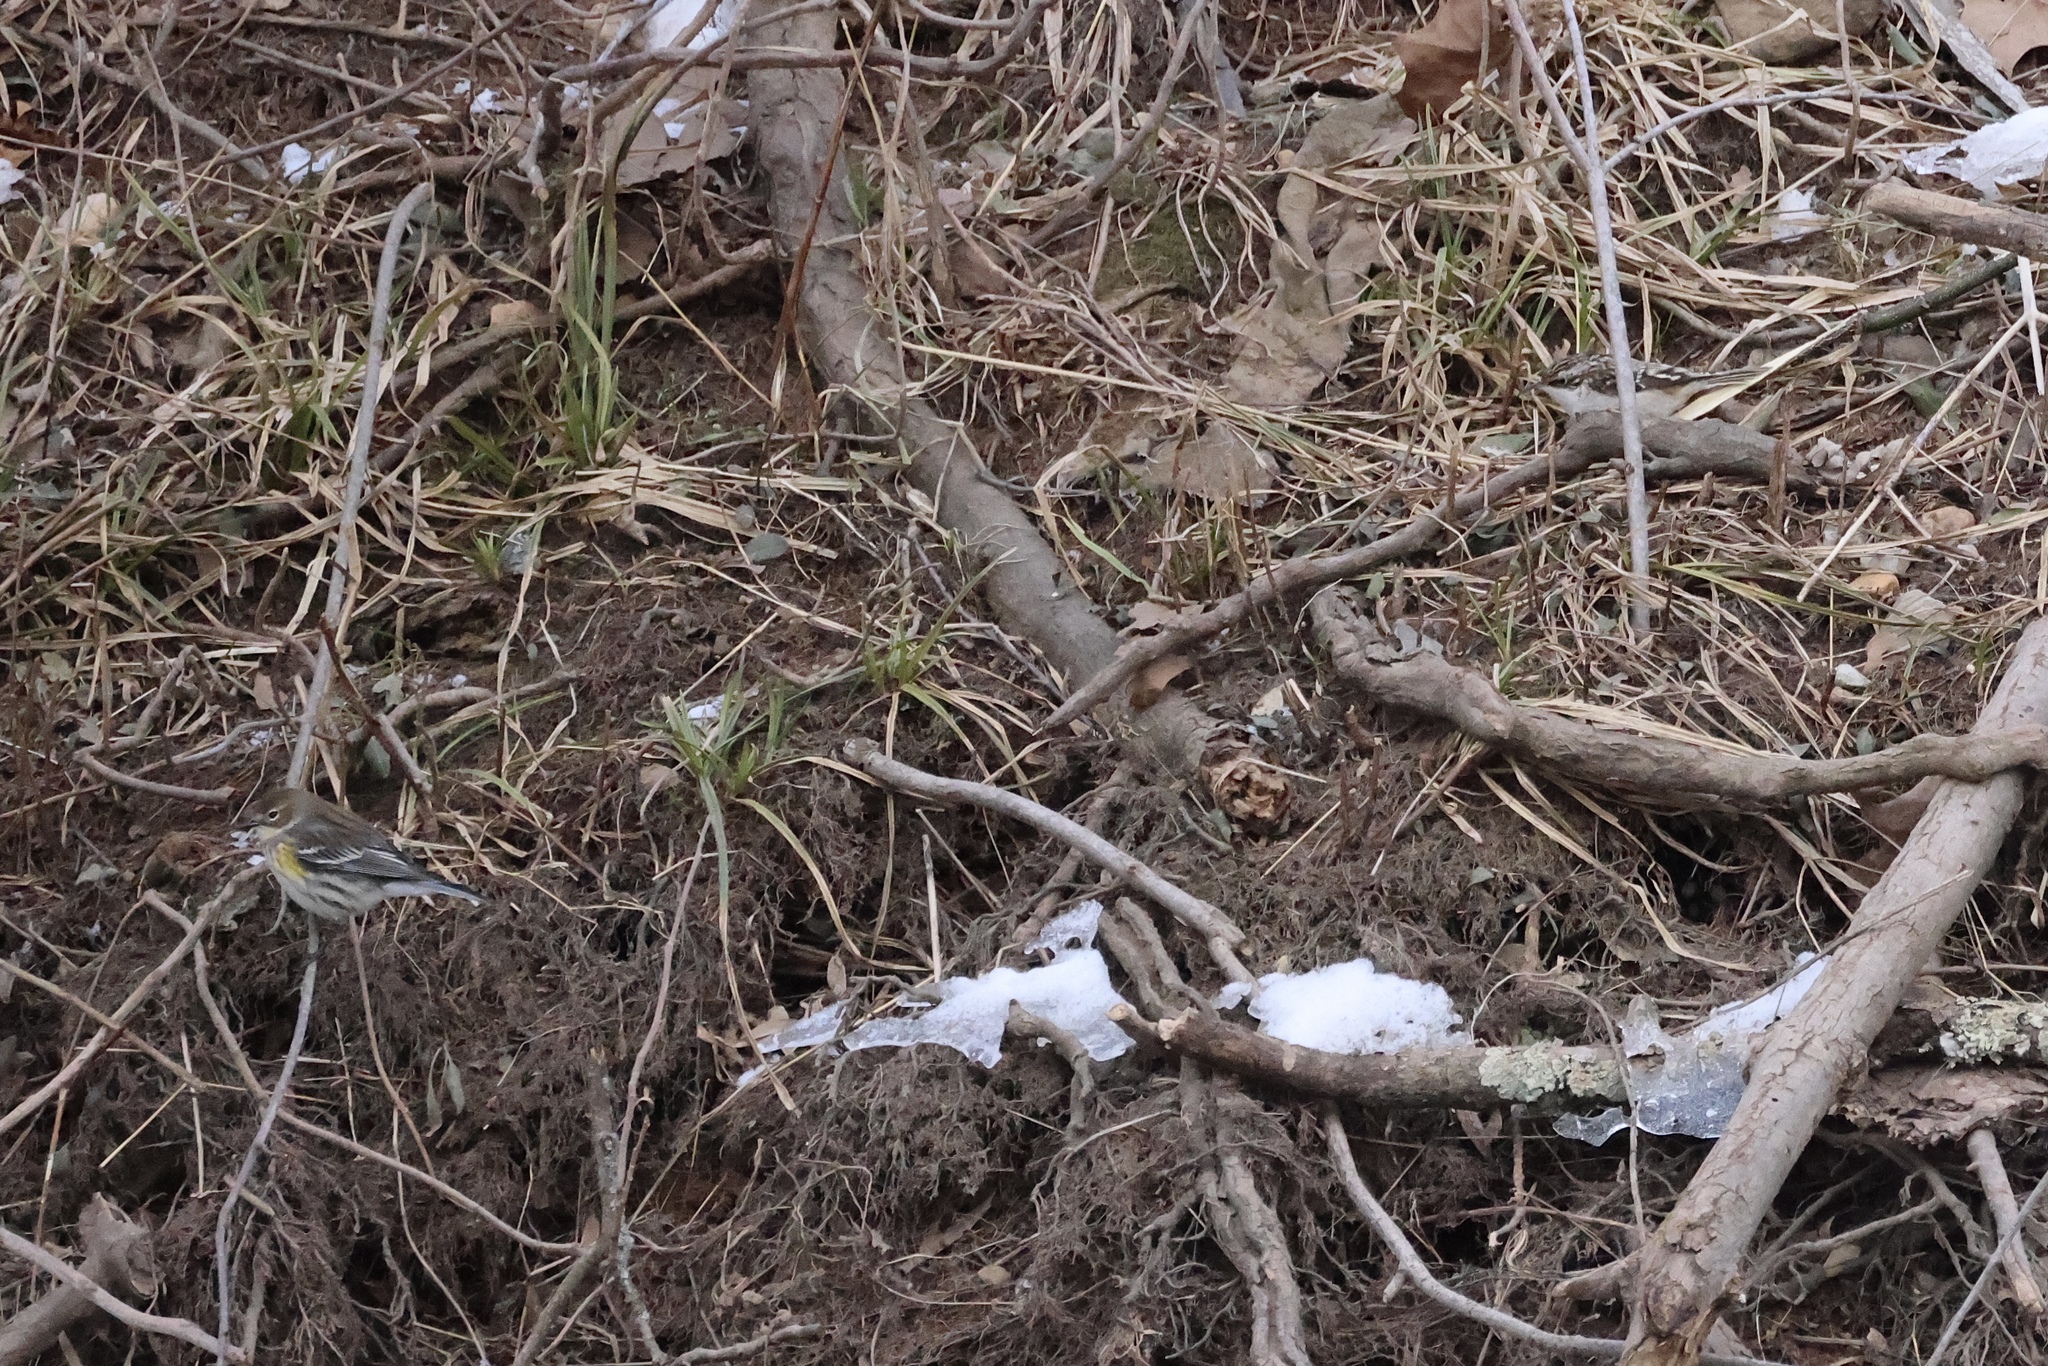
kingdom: Animalia
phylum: Chordata
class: Aves
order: Passeriformes
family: Parulidae
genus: Setophaga
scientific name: Setophaga coronata
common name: Myrtle warbler
